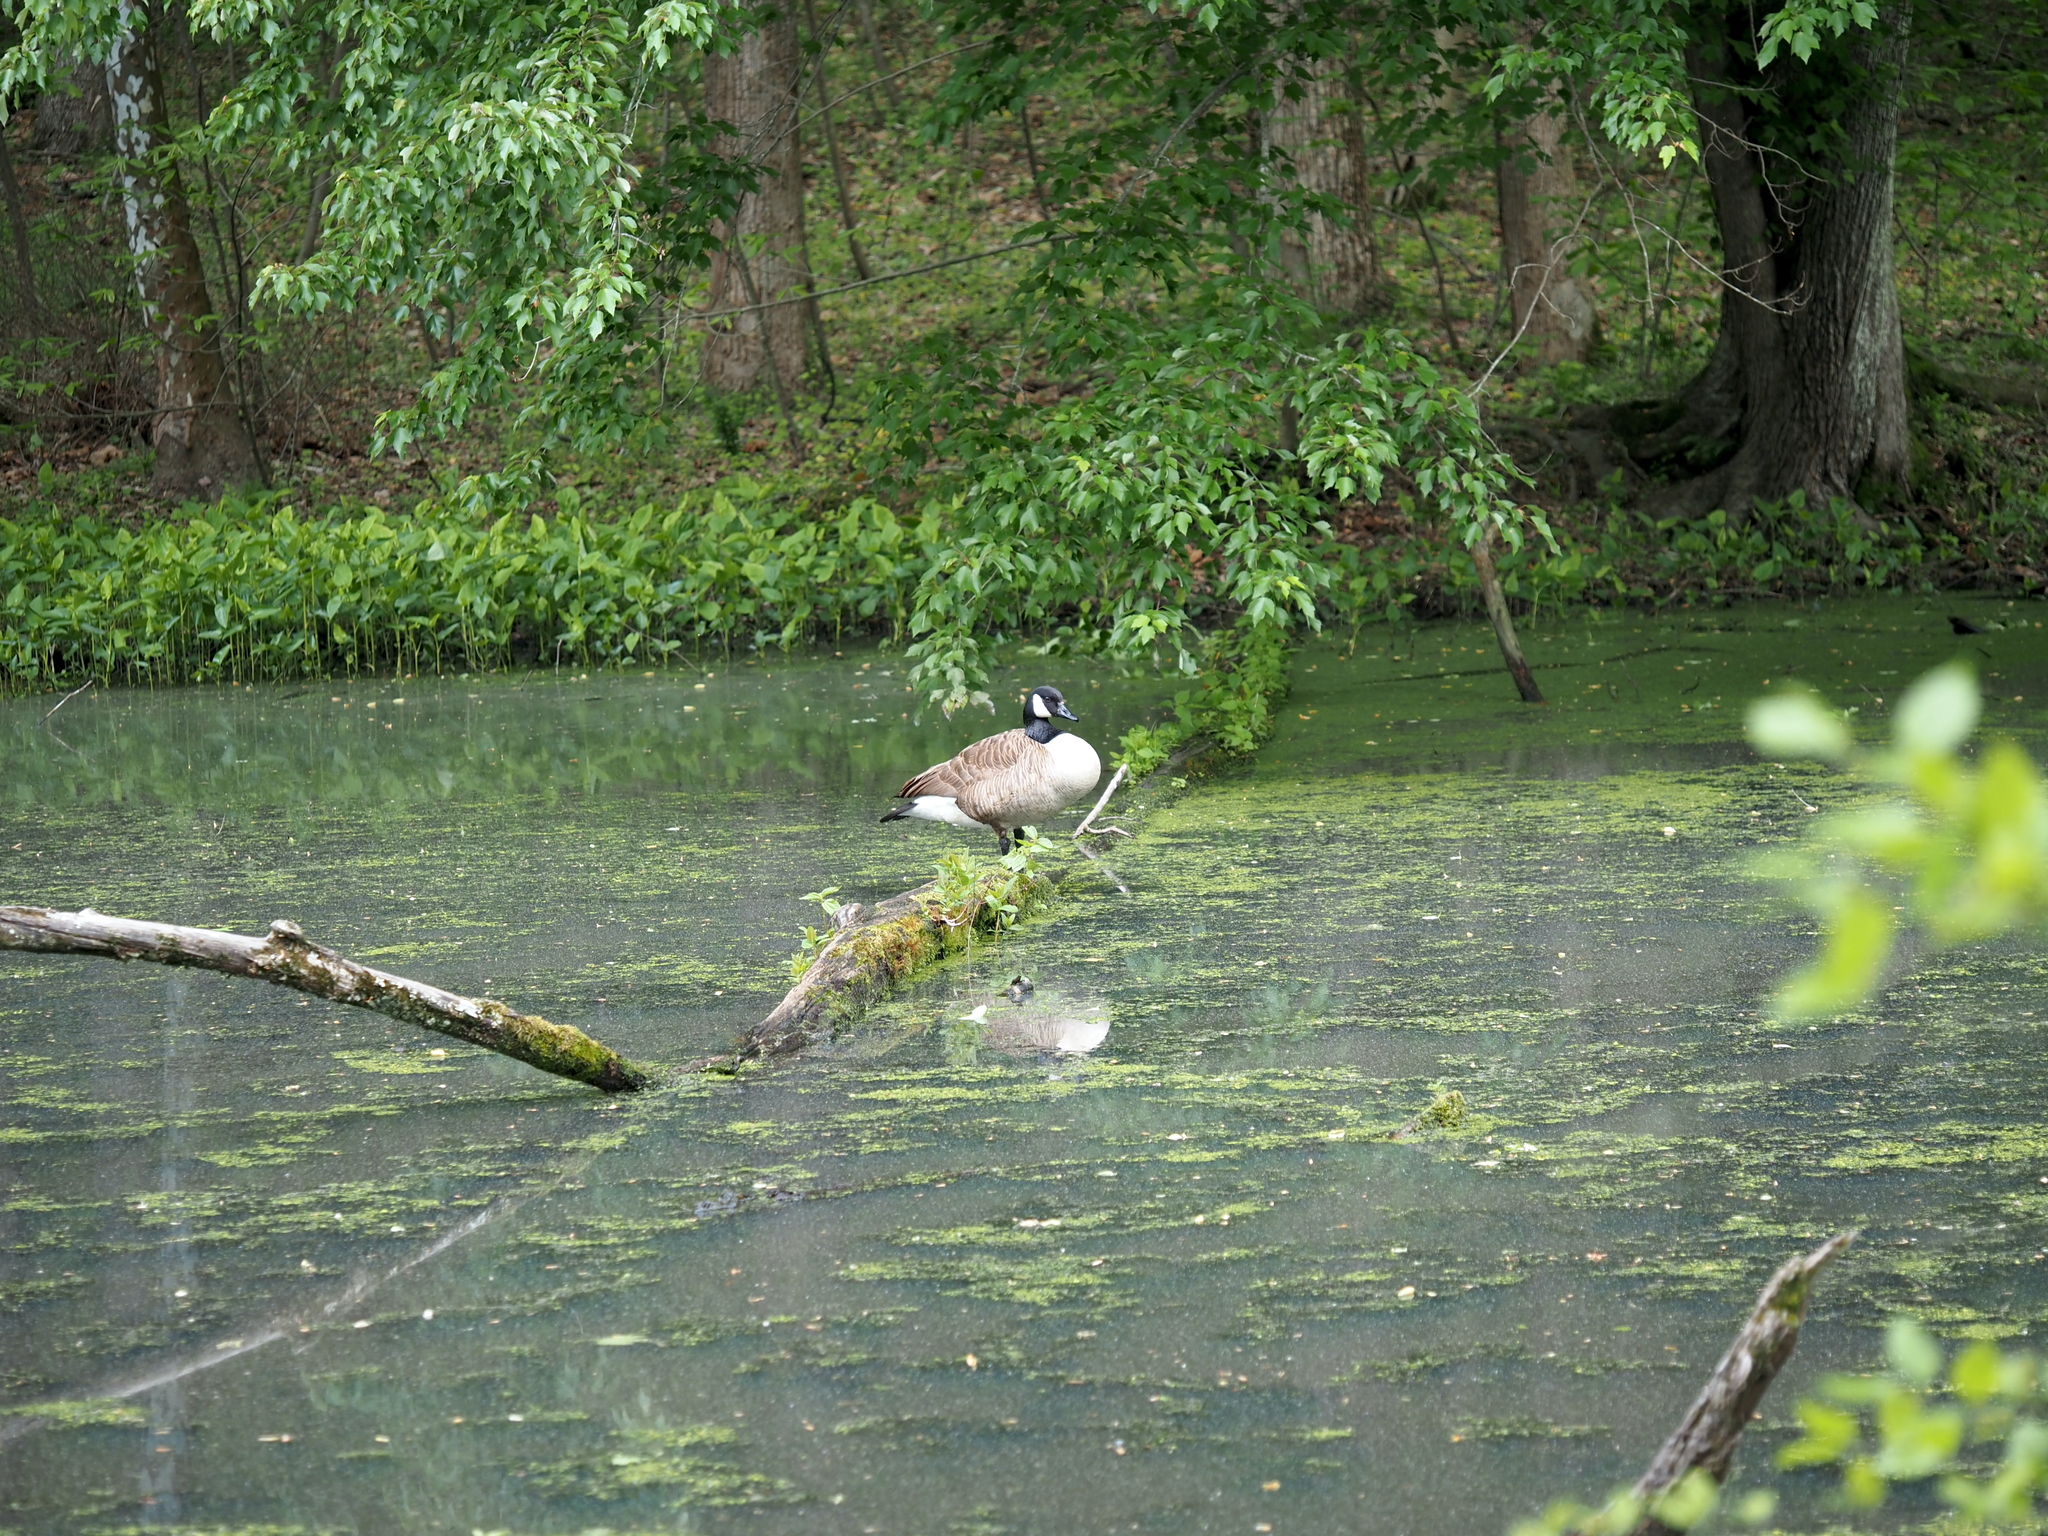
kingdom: Animalia
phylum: Chordata
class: Aves
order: Anseriformes
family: Anatidae
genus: Branta
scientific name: Branta canadensis
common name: Canada goose
